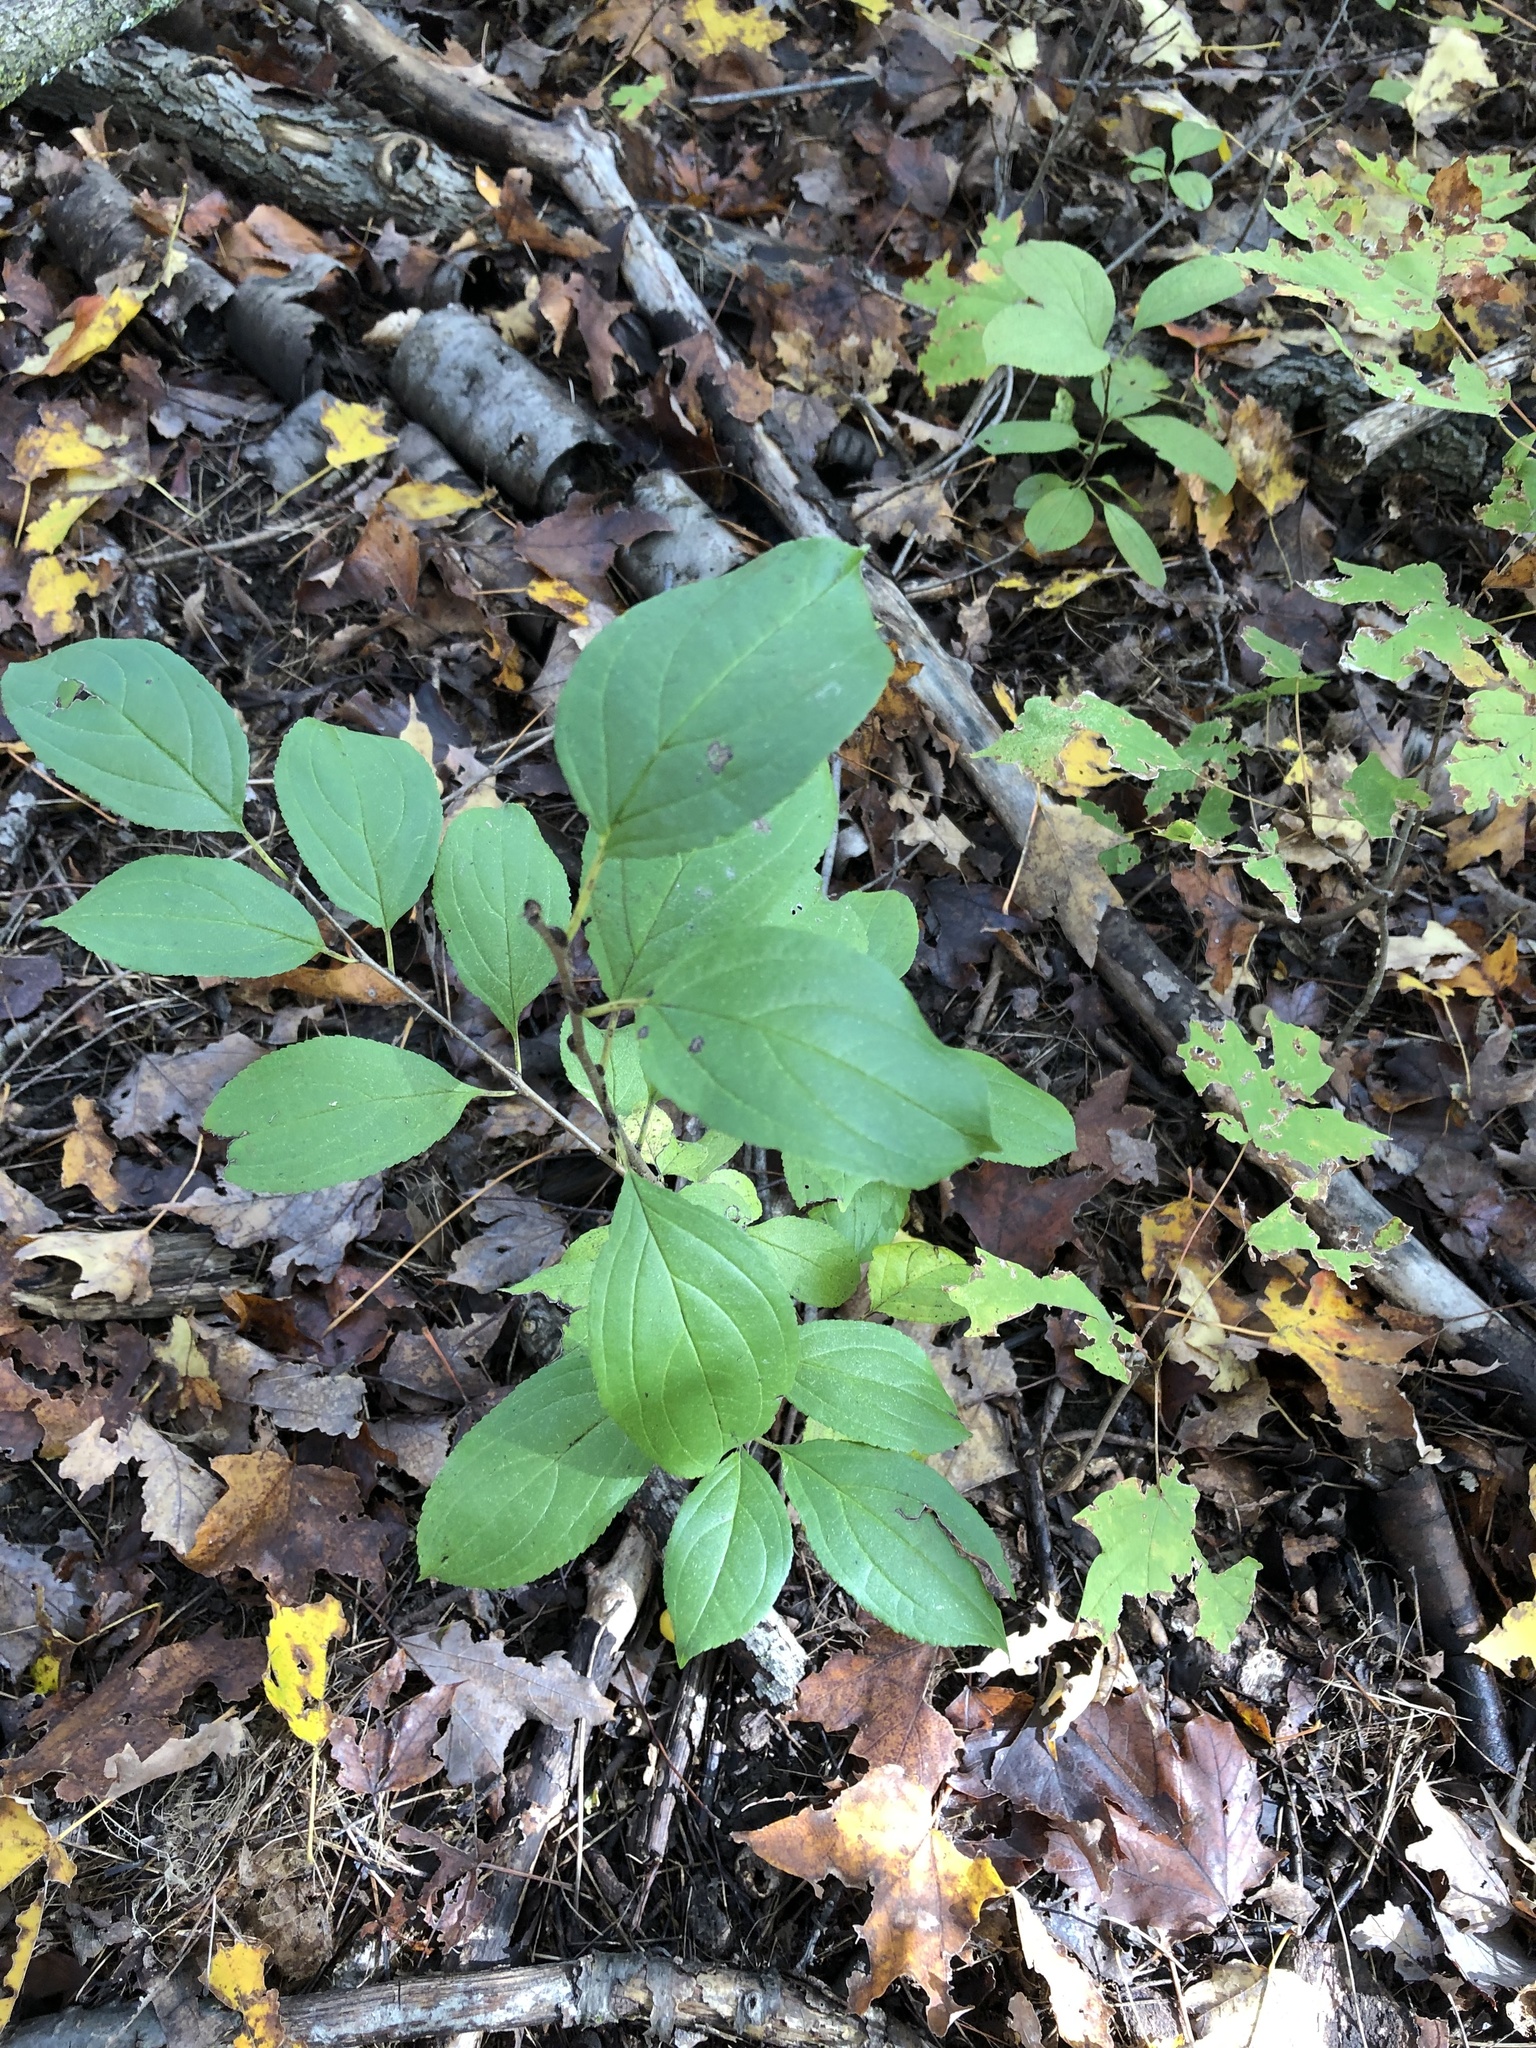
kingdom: Plantae
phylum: Tracheophyta
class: Magnoliopsida
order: Rosales
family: Rhamnaceae
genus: Rhamnus
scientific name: Rhamnus cathartica
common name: Common buckthorn
